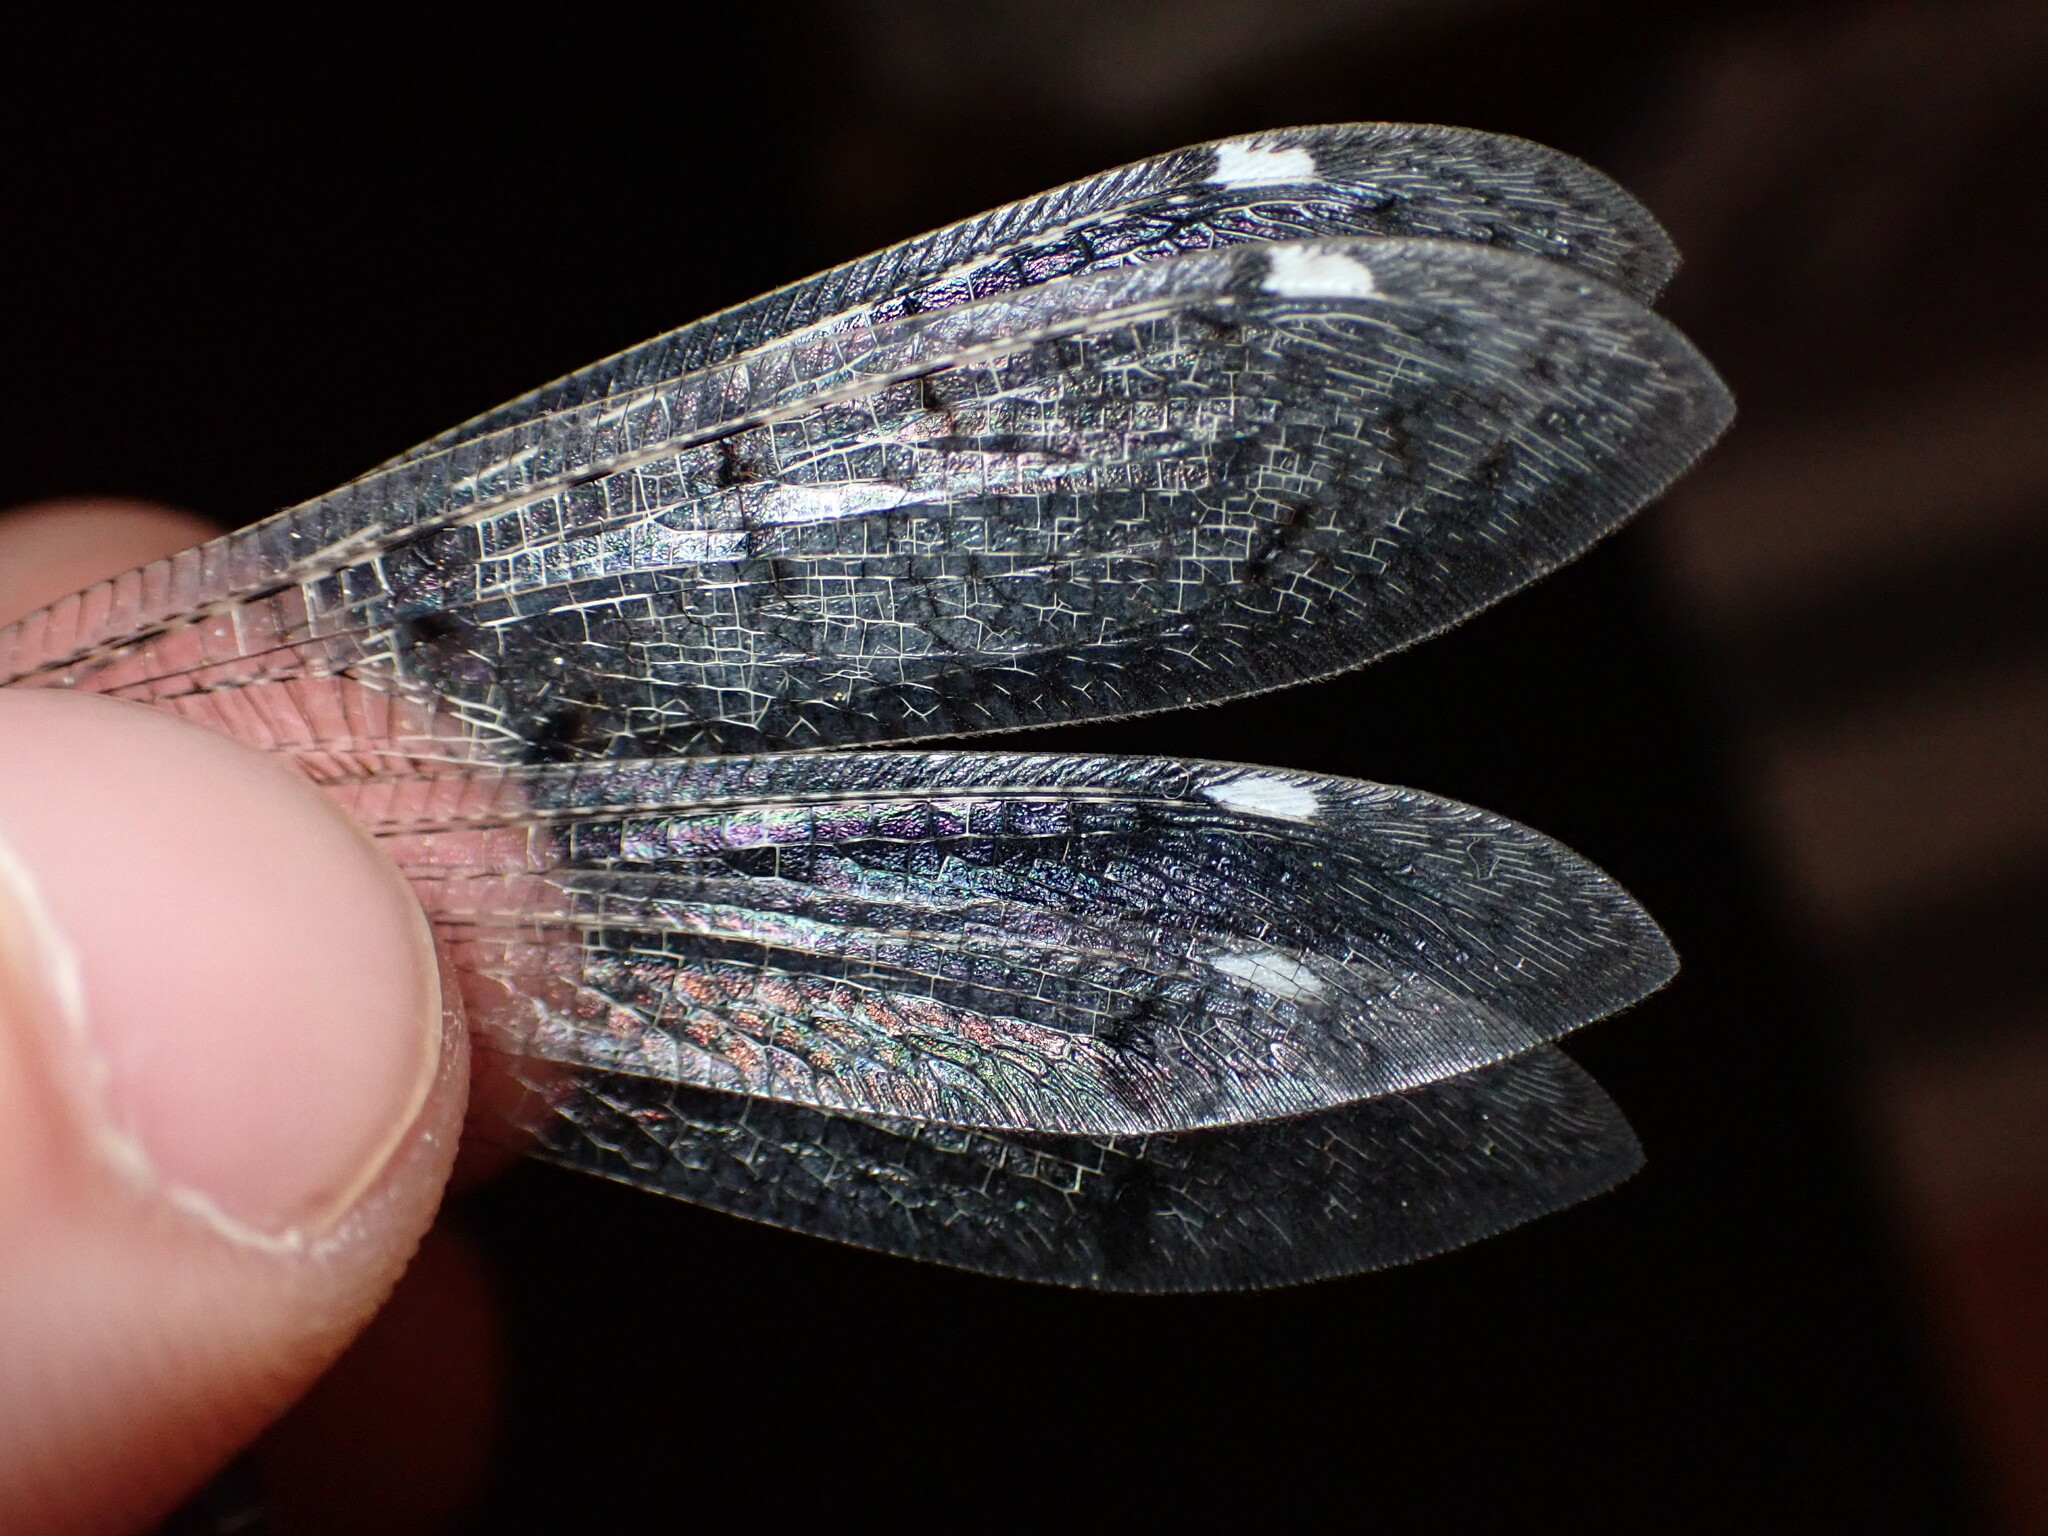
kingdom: Animalia
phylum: Arthropoda
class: Insecta
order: Neuroptera
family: Myrmeleontidae
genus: Distoleon
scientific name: Distoleon tetragrammicus
